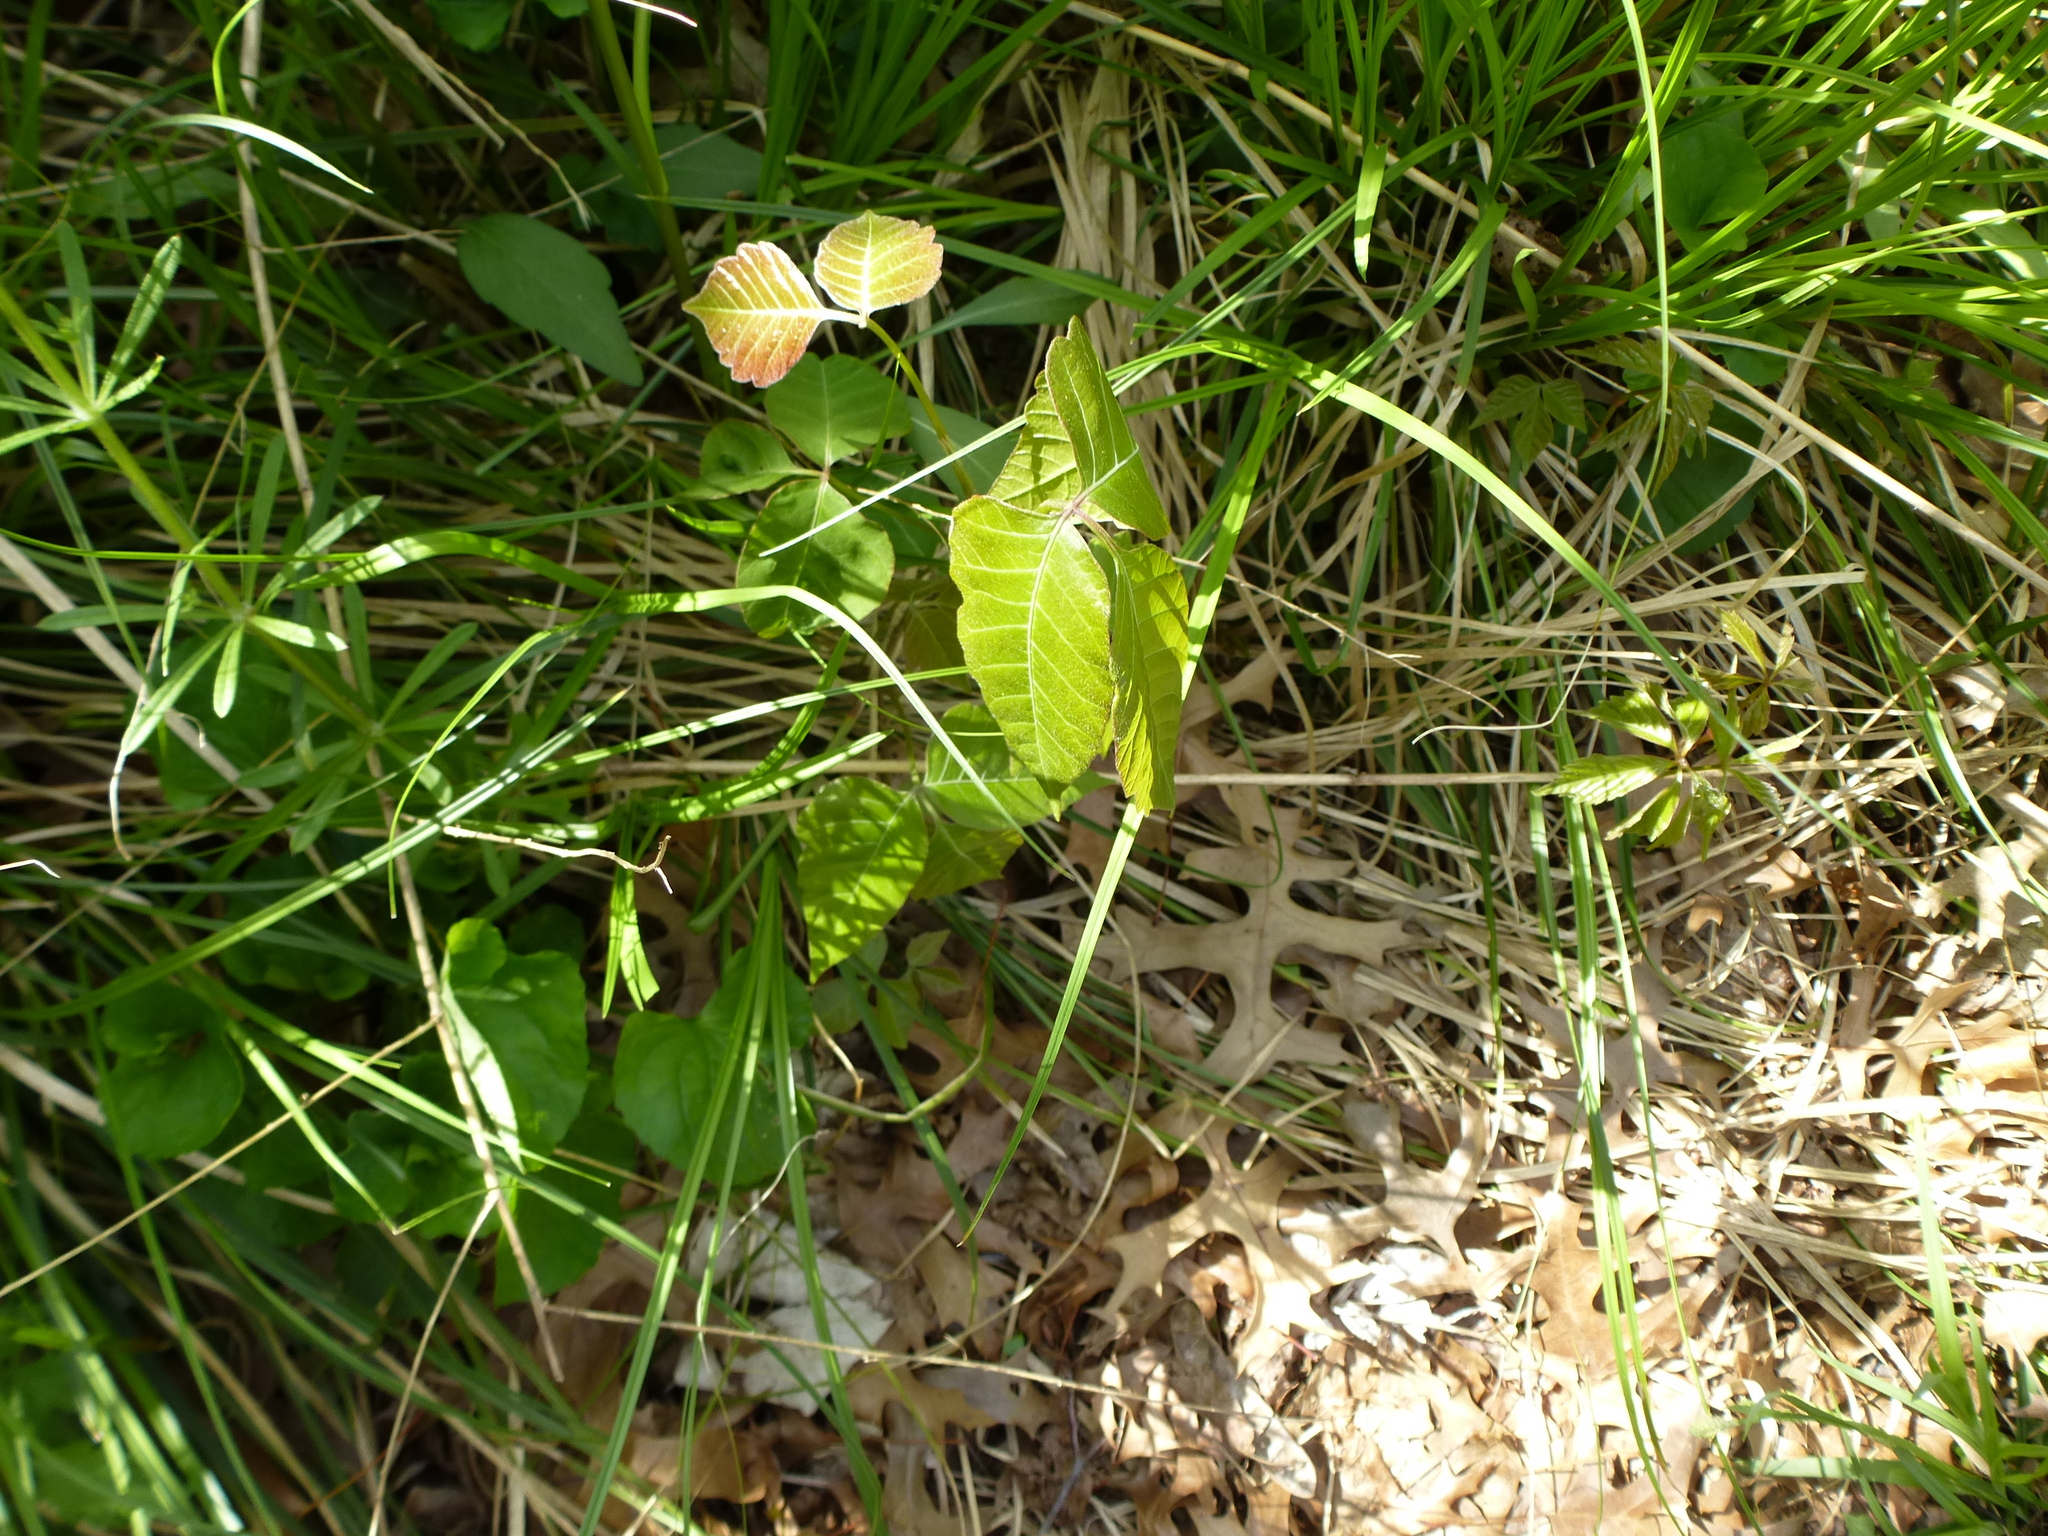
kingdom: Plantae
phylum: Tracheophyta
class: Magnoliopsida
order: Sapindales
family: Anacardiaceae
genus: Toxicodendron
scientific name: Toxicodendron radicans
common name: Poison ivy
